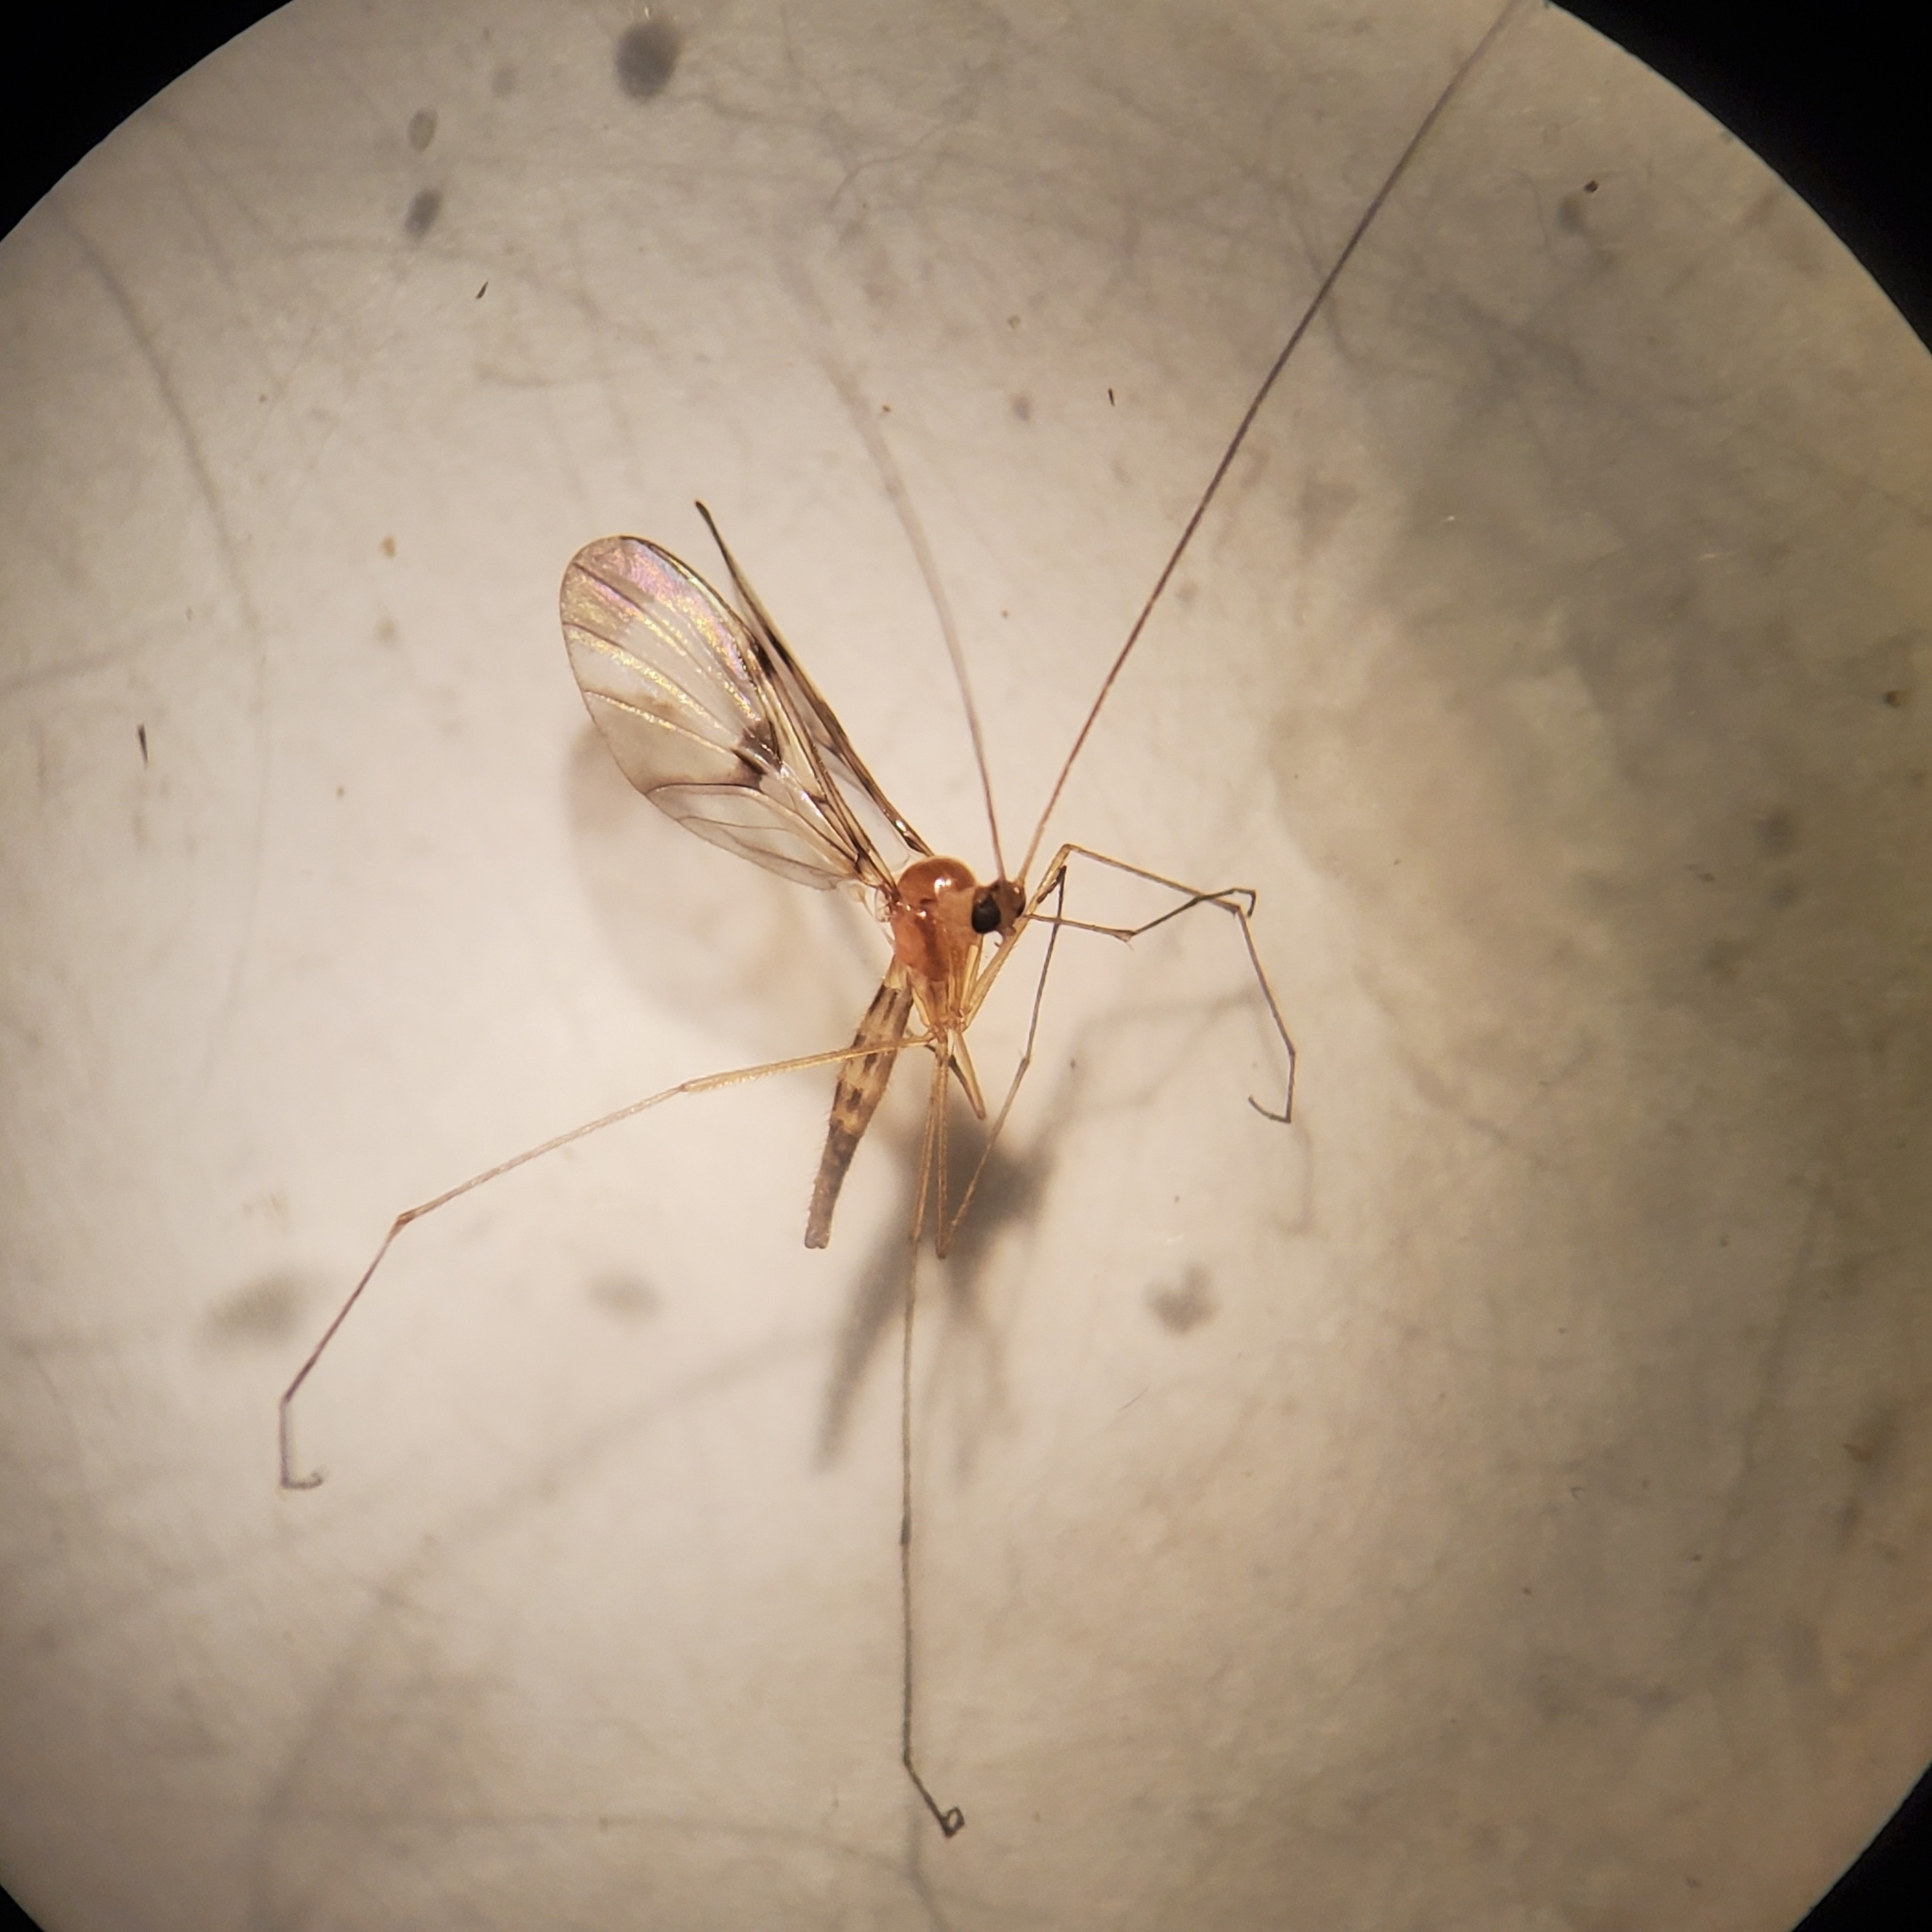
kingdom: Animalia
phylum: Arthropoda
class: Insecta
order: Diptera
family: Keroplatidae
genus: Macrocera
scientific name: Macrocera clara
